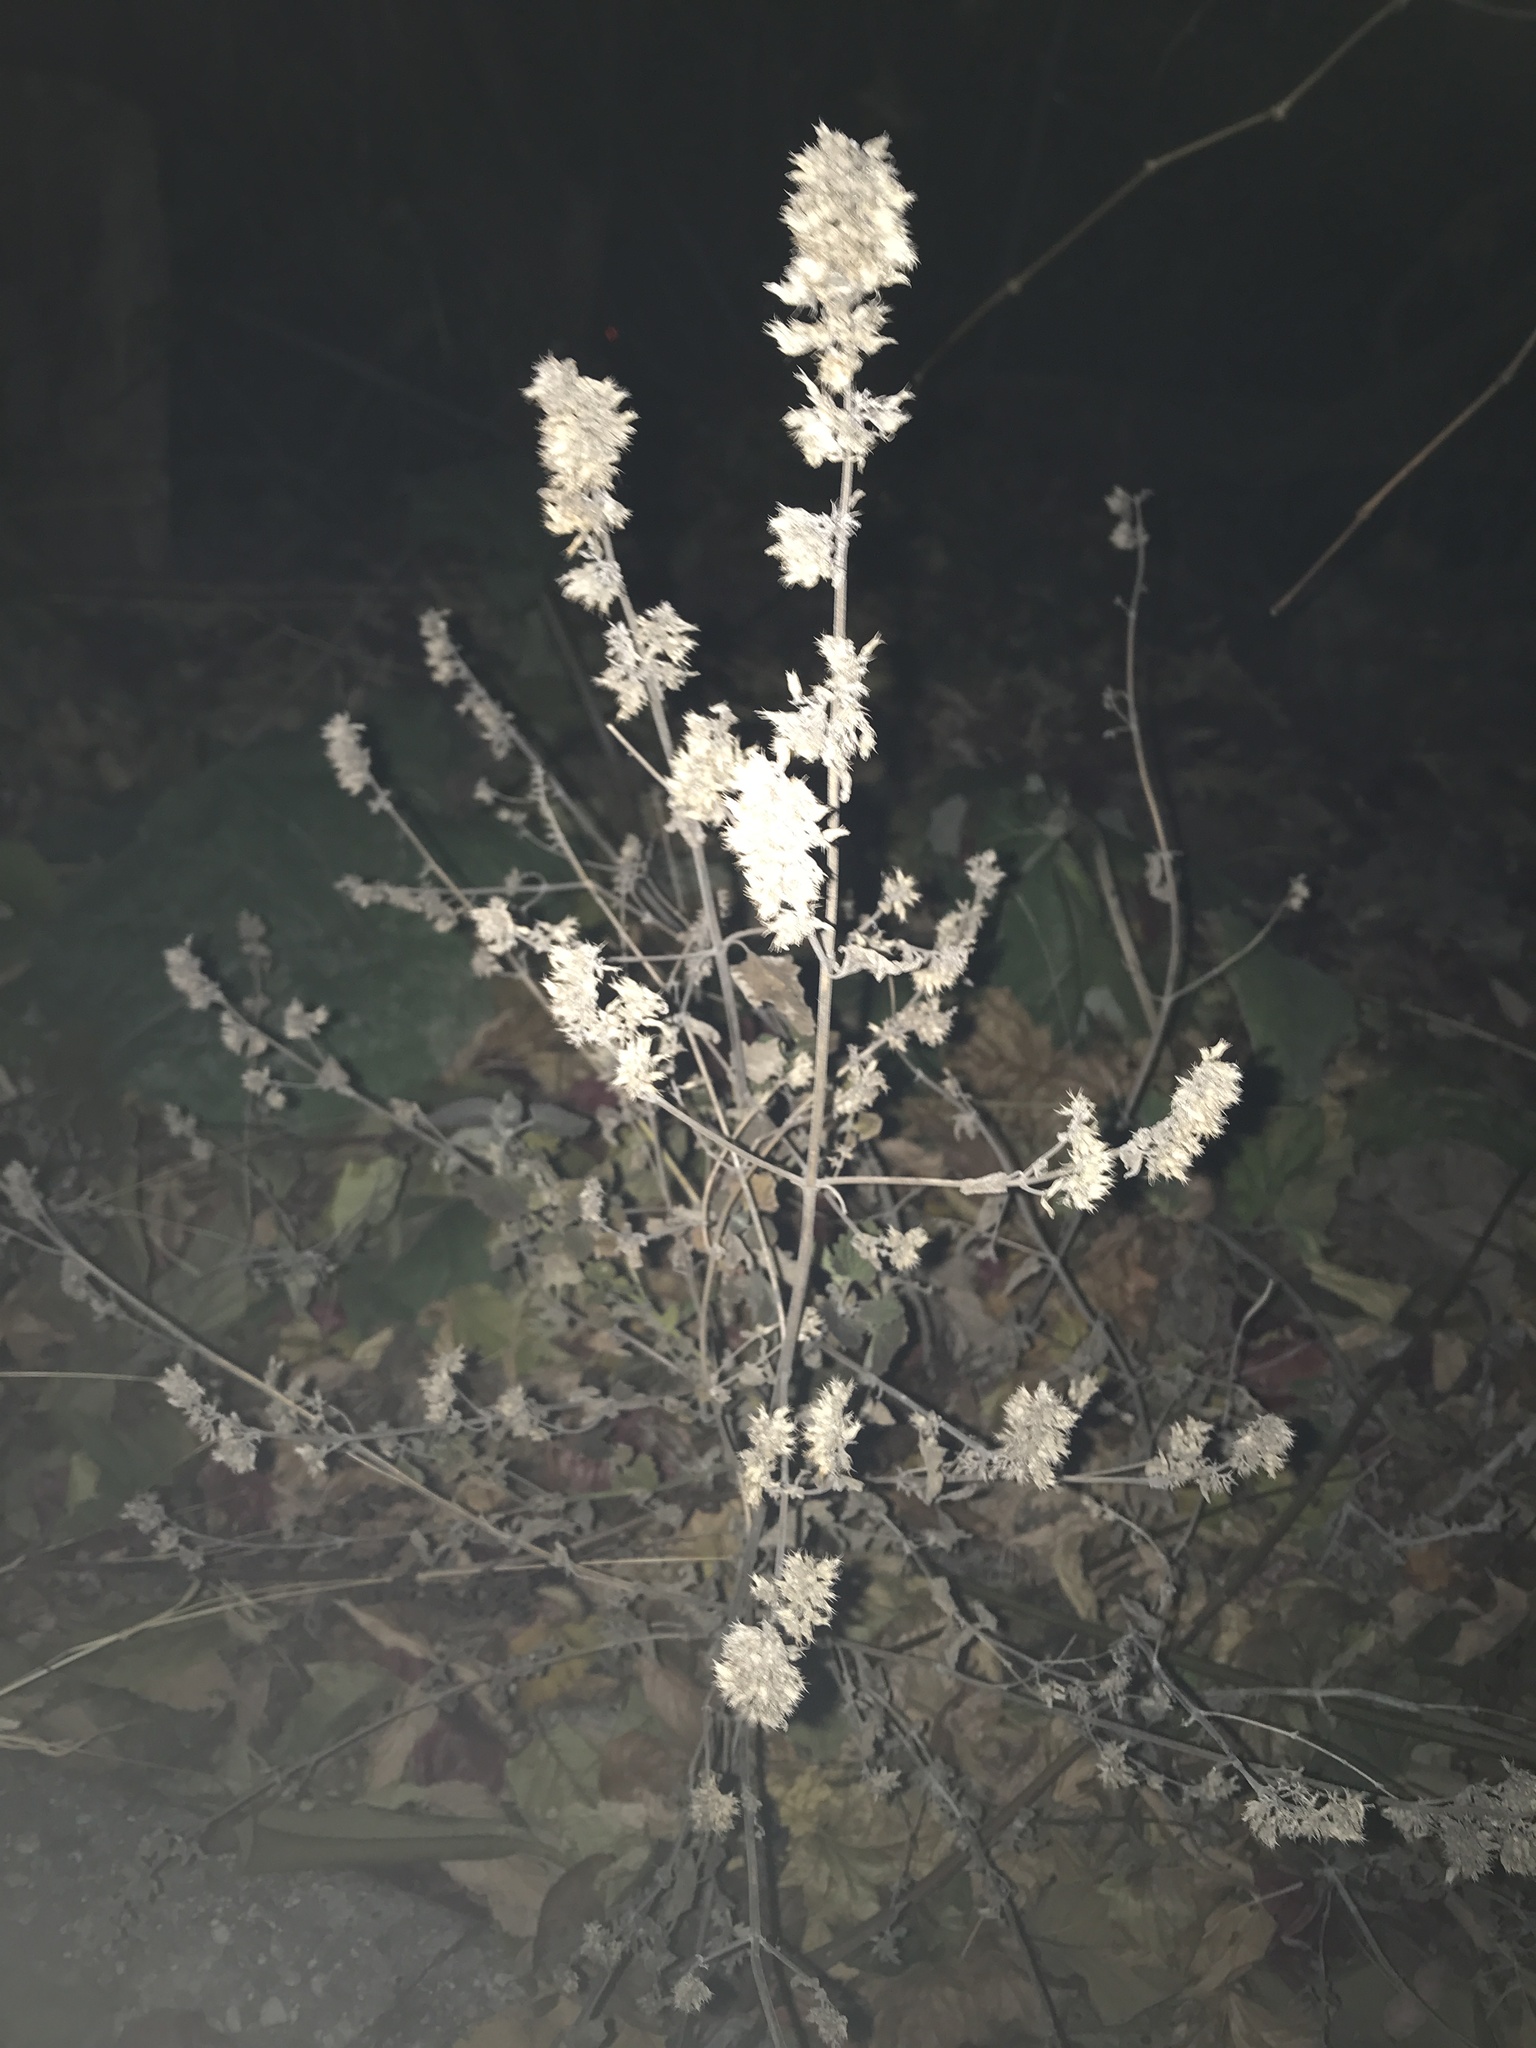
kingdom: Plantae
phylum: Tracheophyta
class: Magnoliopsida
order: Lamiales
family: Lamiaceae
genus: Nepeta
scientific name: Nepeta cataria
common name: Catnip
